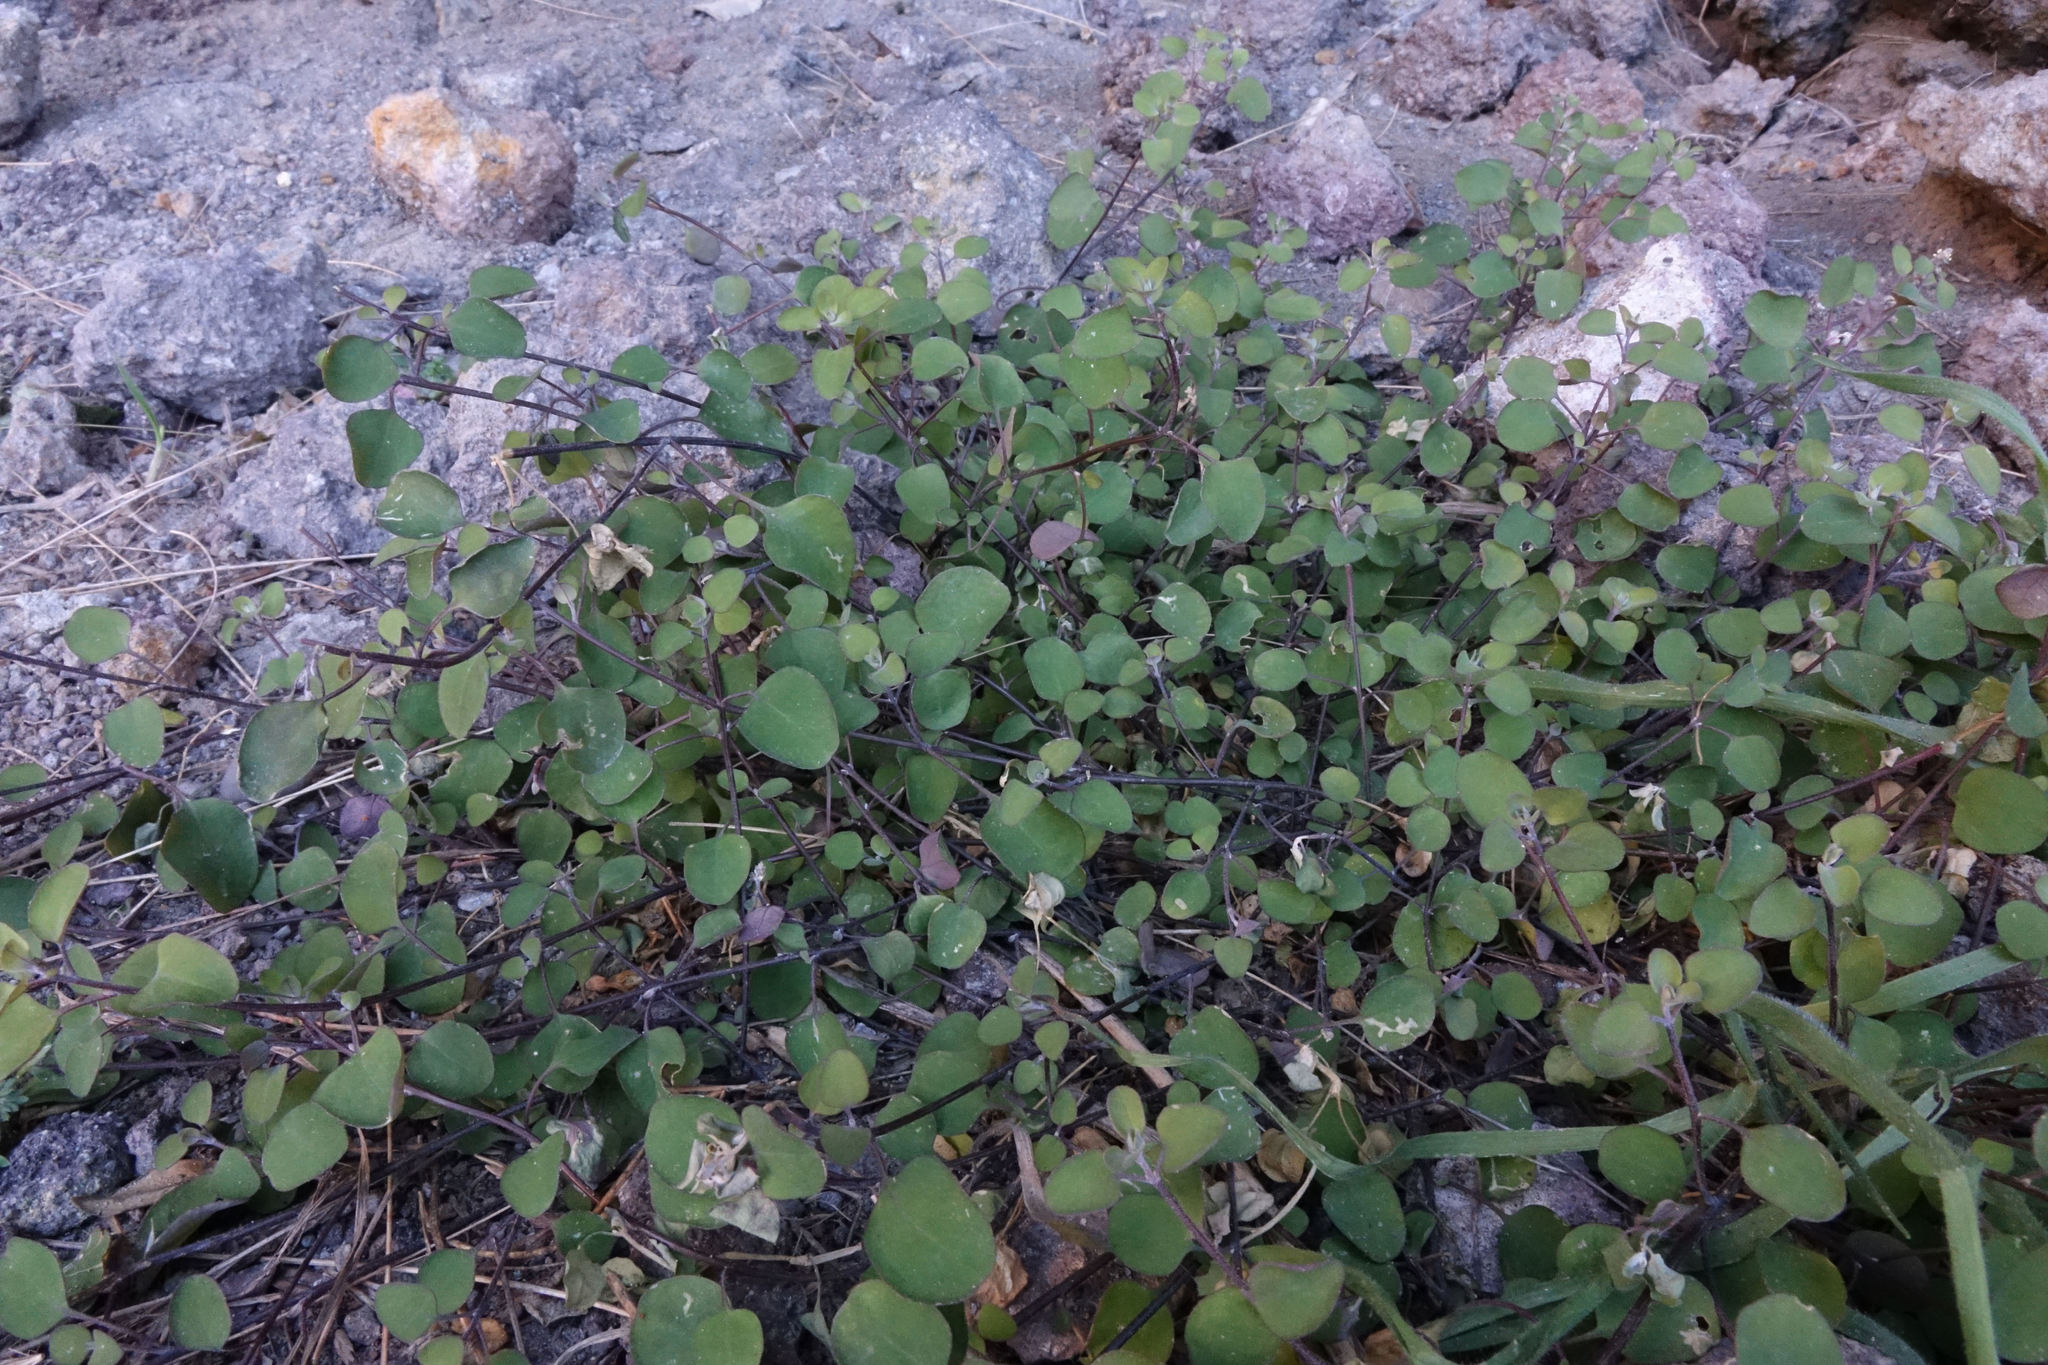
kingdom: Plantae
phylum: Tracheophyta
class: Magnoliopsida
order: Caryophyllales
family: Amaranthaceae
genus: Chenopodium
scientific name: Chenopodium allanii
